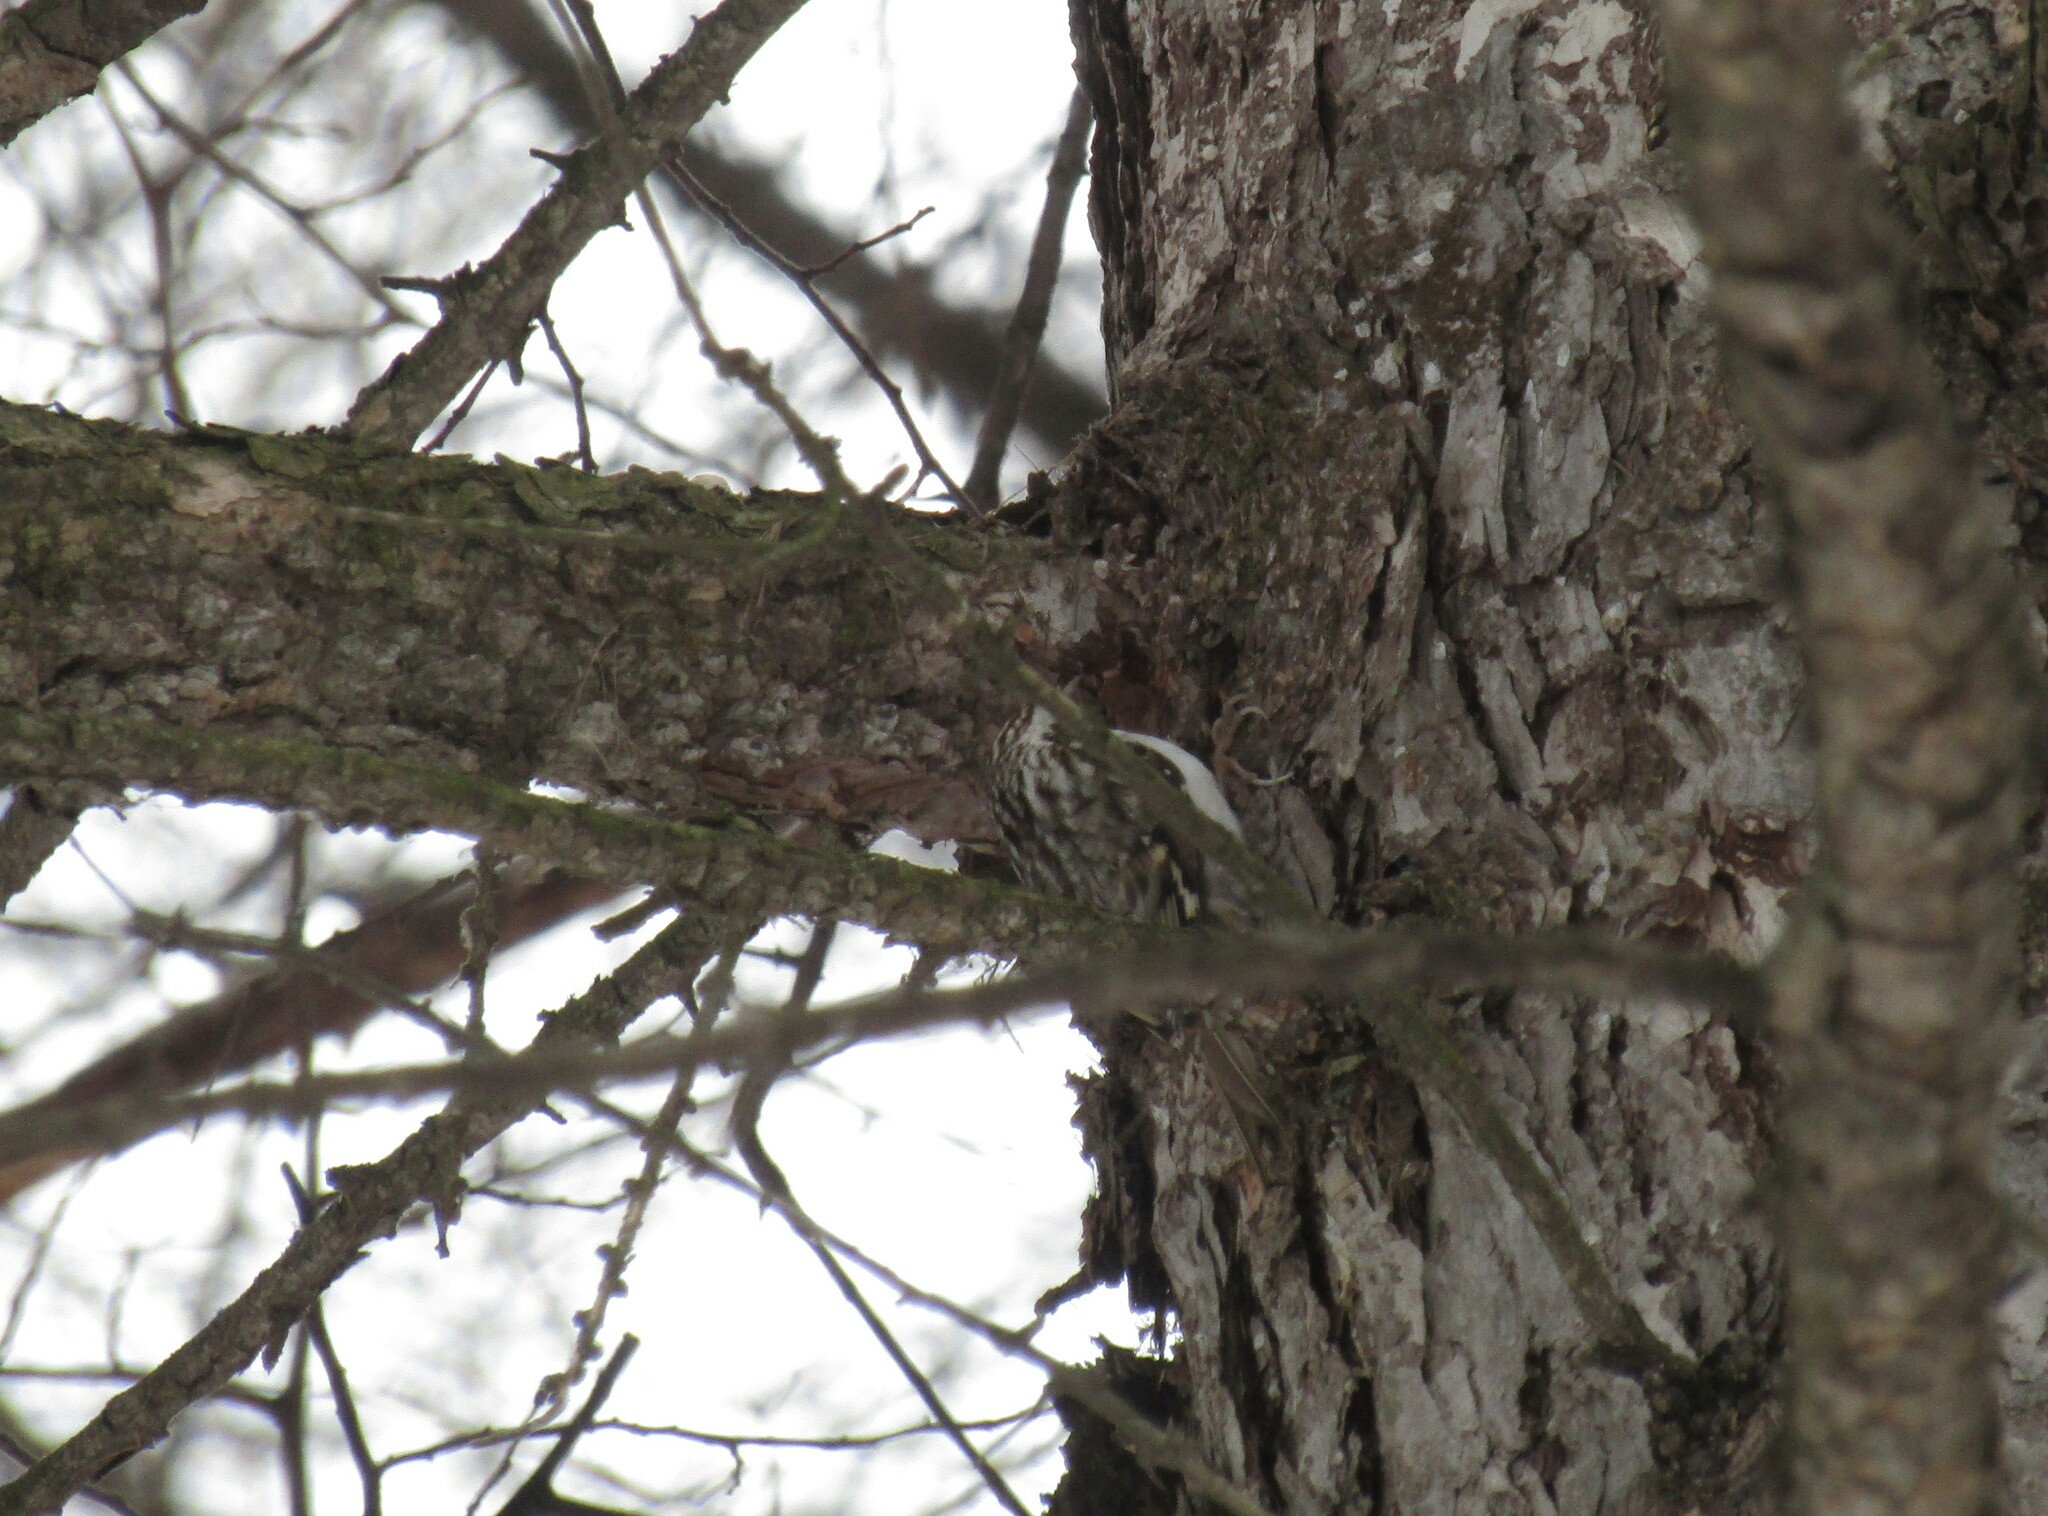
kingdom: Animalia
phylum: Chordata
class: Aves
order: Passeriformes
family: Certhiidae
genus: Certhia
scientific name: Certhia familiaris
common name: Eurasian treecreeper
